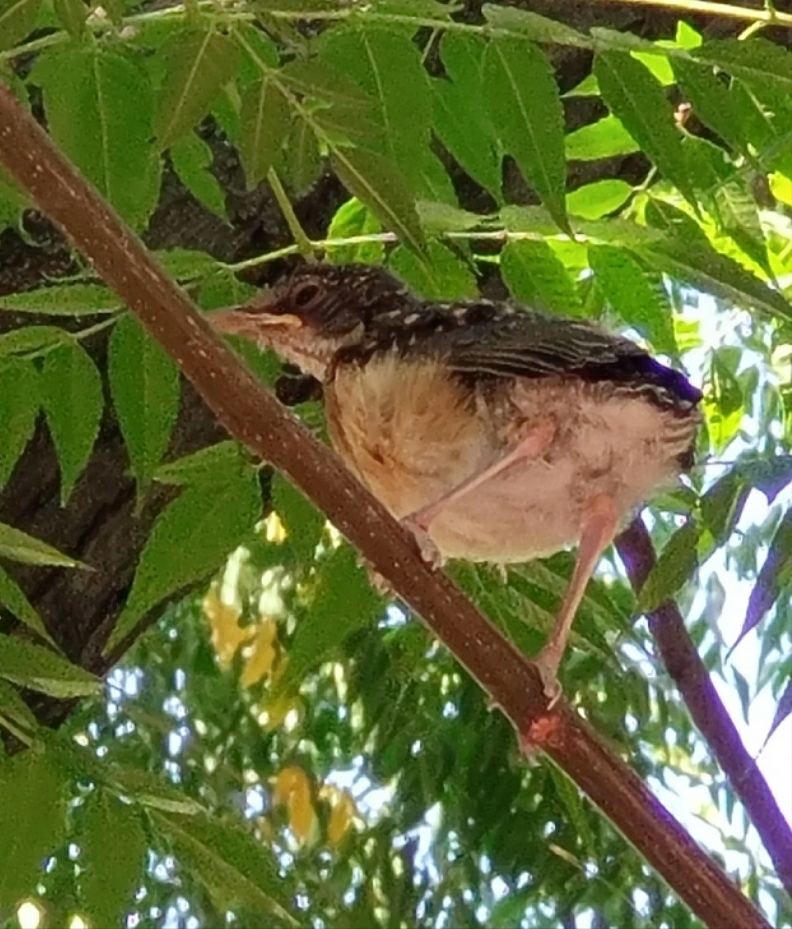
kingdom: Animalia
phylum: Chordata
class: Aves
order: Passeriformes
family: Turdidae
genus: Turdus
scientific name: Turdus rufopalliatus
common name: Rufous-backed robin
